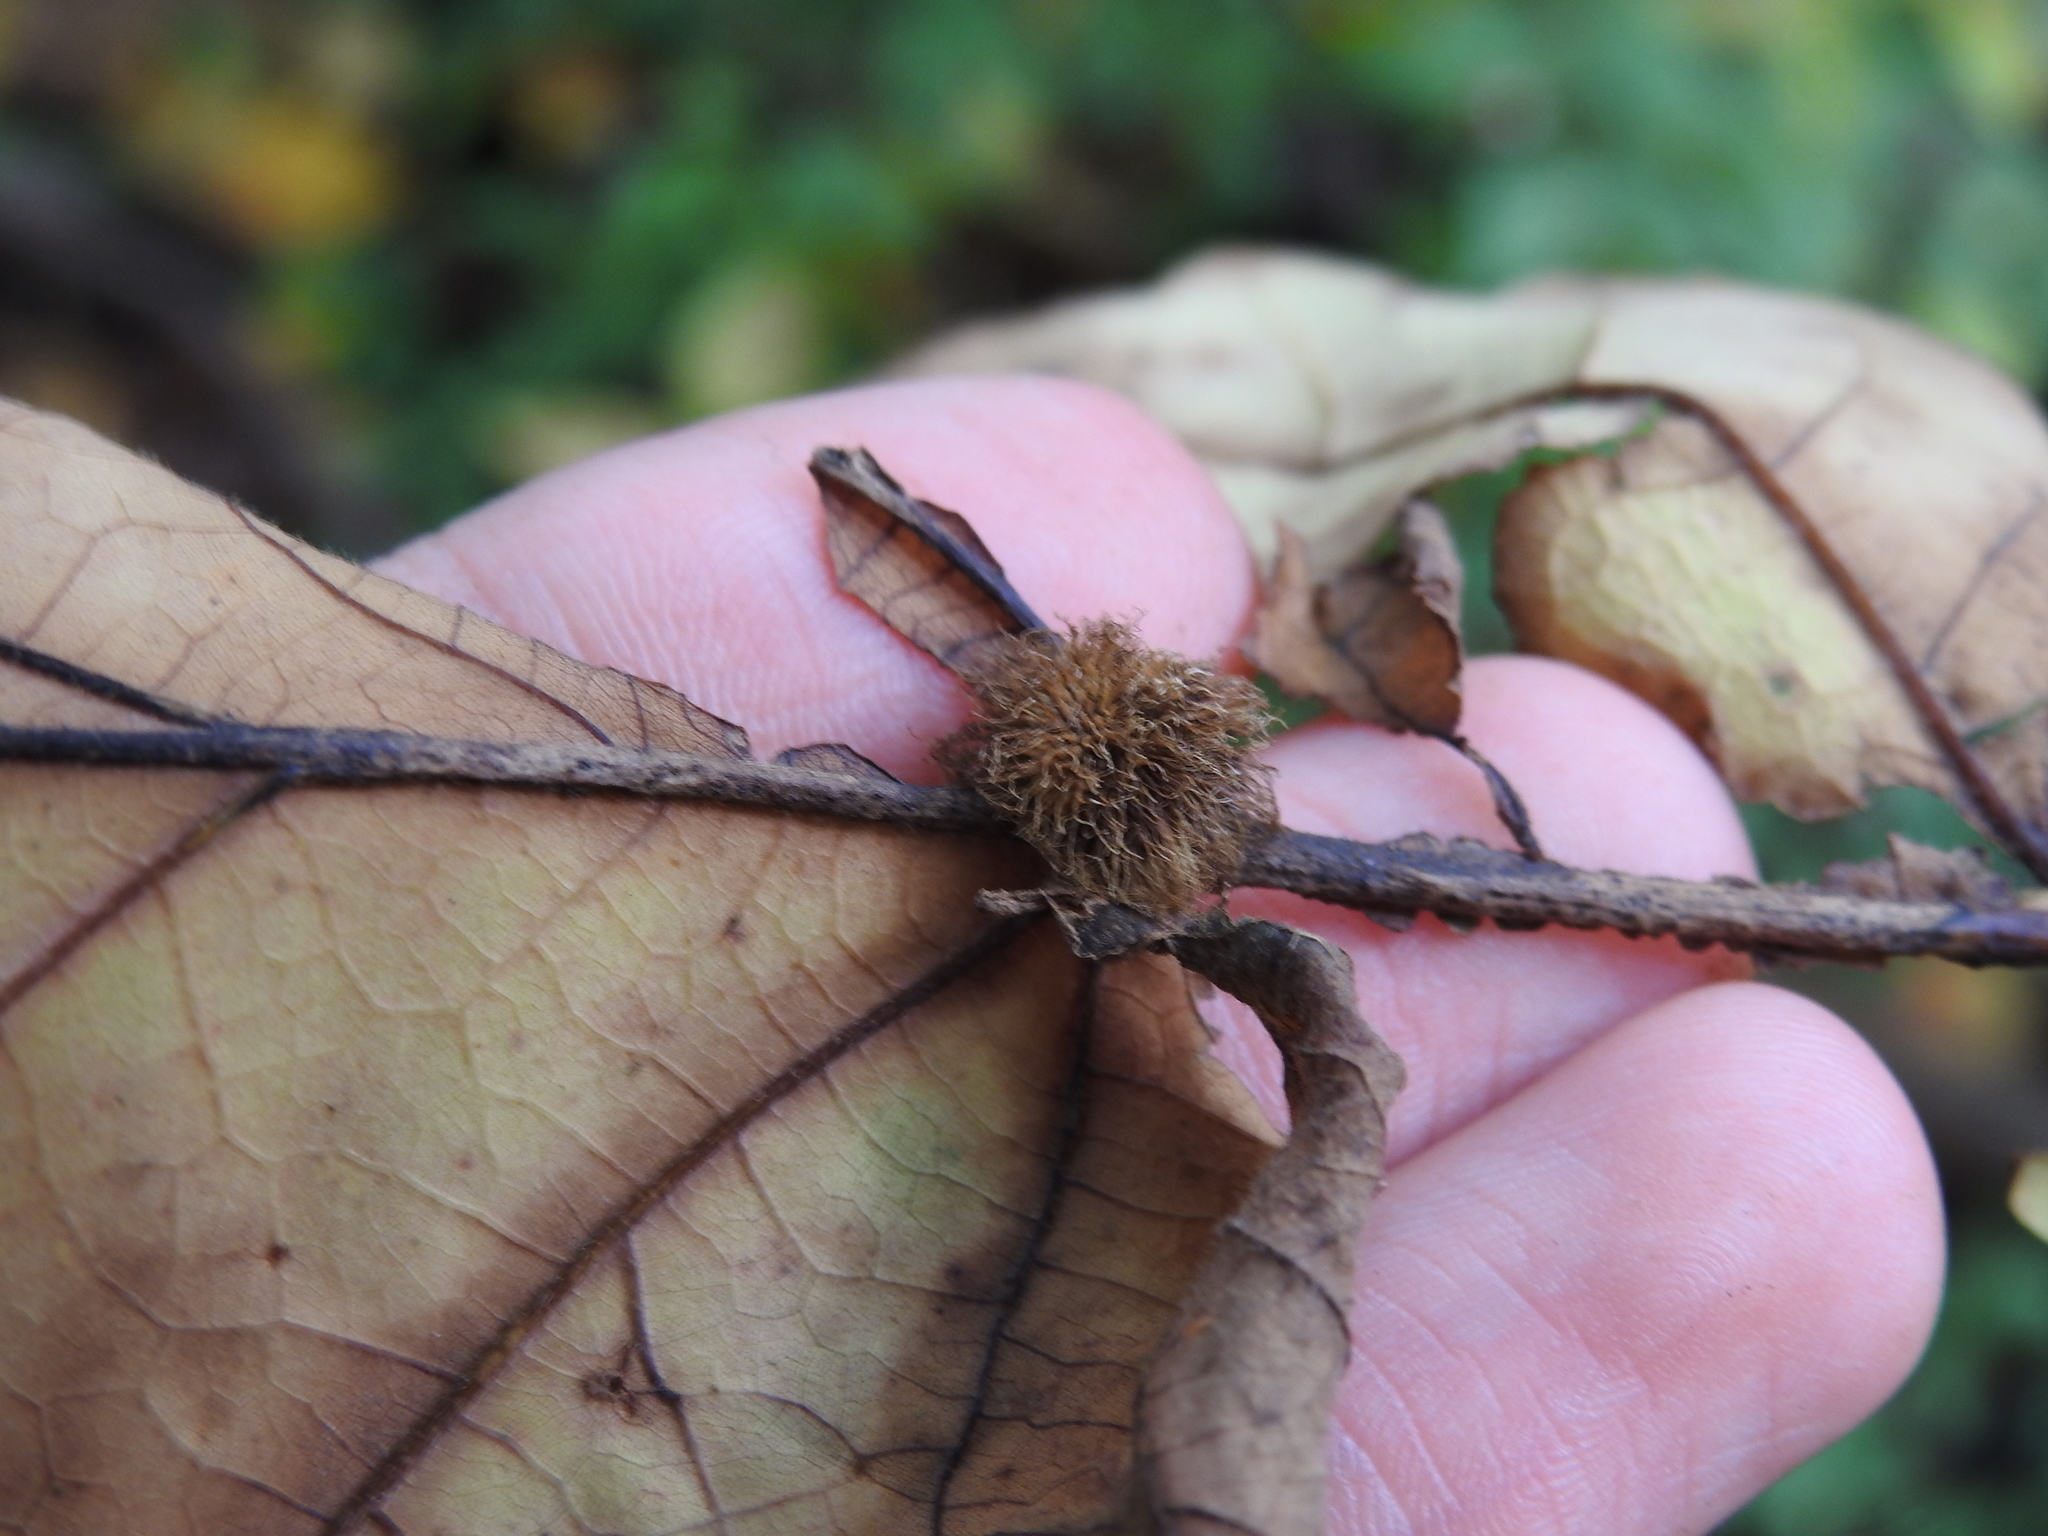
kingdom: Animalia
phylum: Arthropoda
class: Insecta
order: Hymenoptera
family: Cynipidae
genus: Acraspis
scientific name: Acraspis villosa
